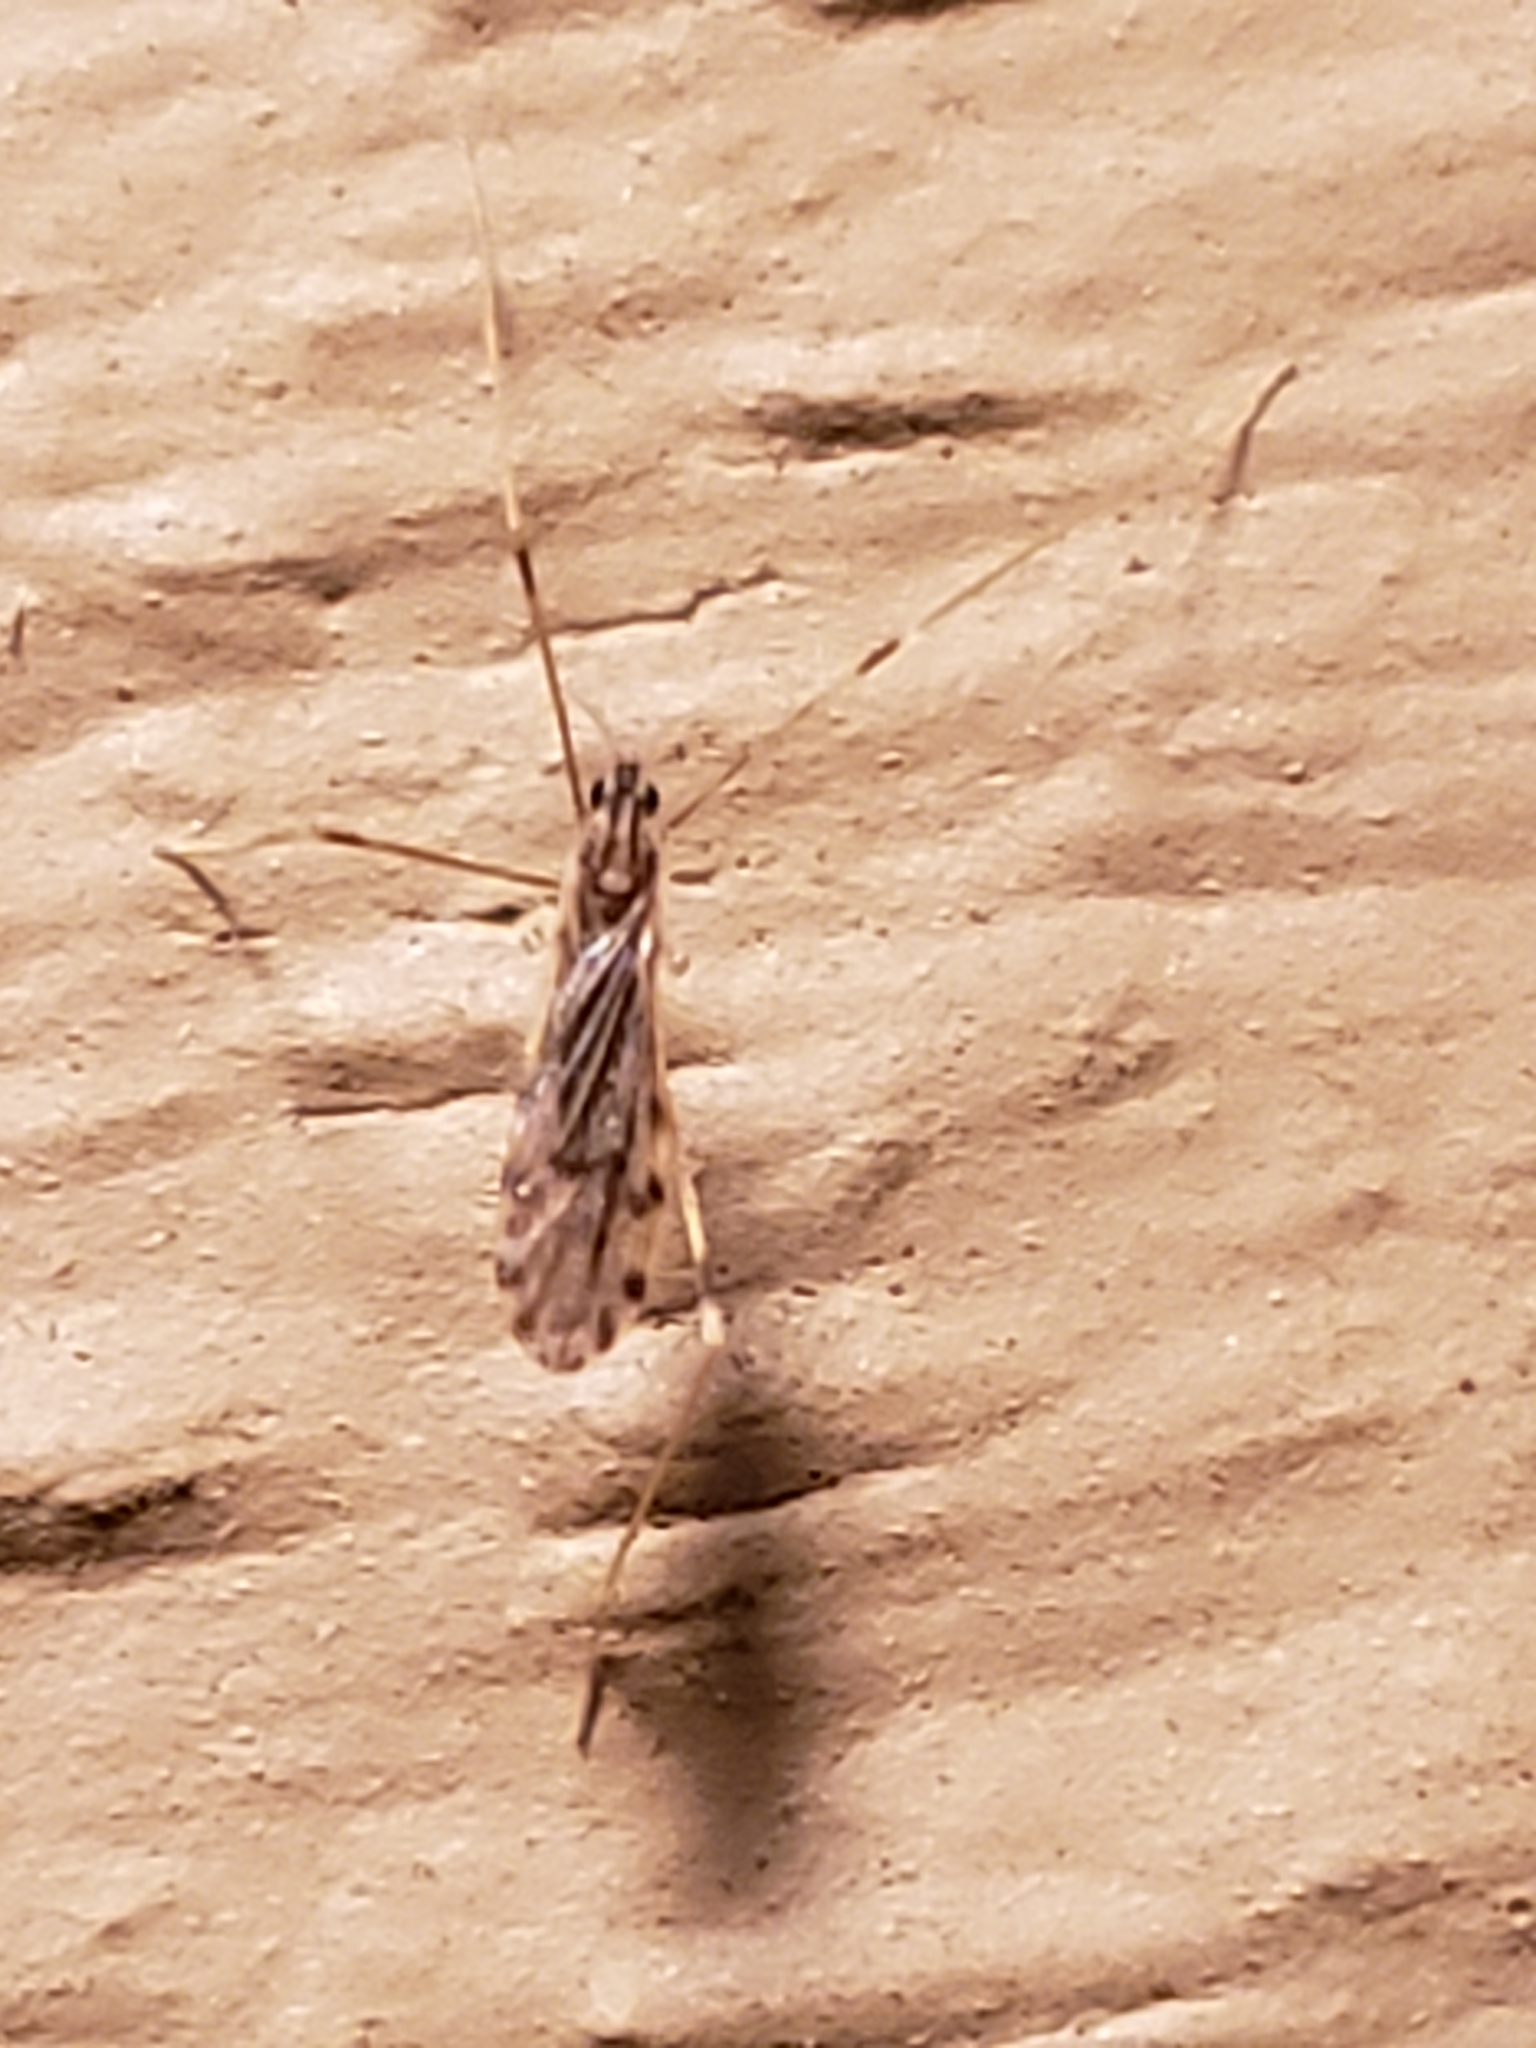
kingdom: Animalia
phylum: Arthropoda
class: Insecta
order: Diptera
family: Limoniidae
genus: Erioptera
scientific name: Erioptera parva
